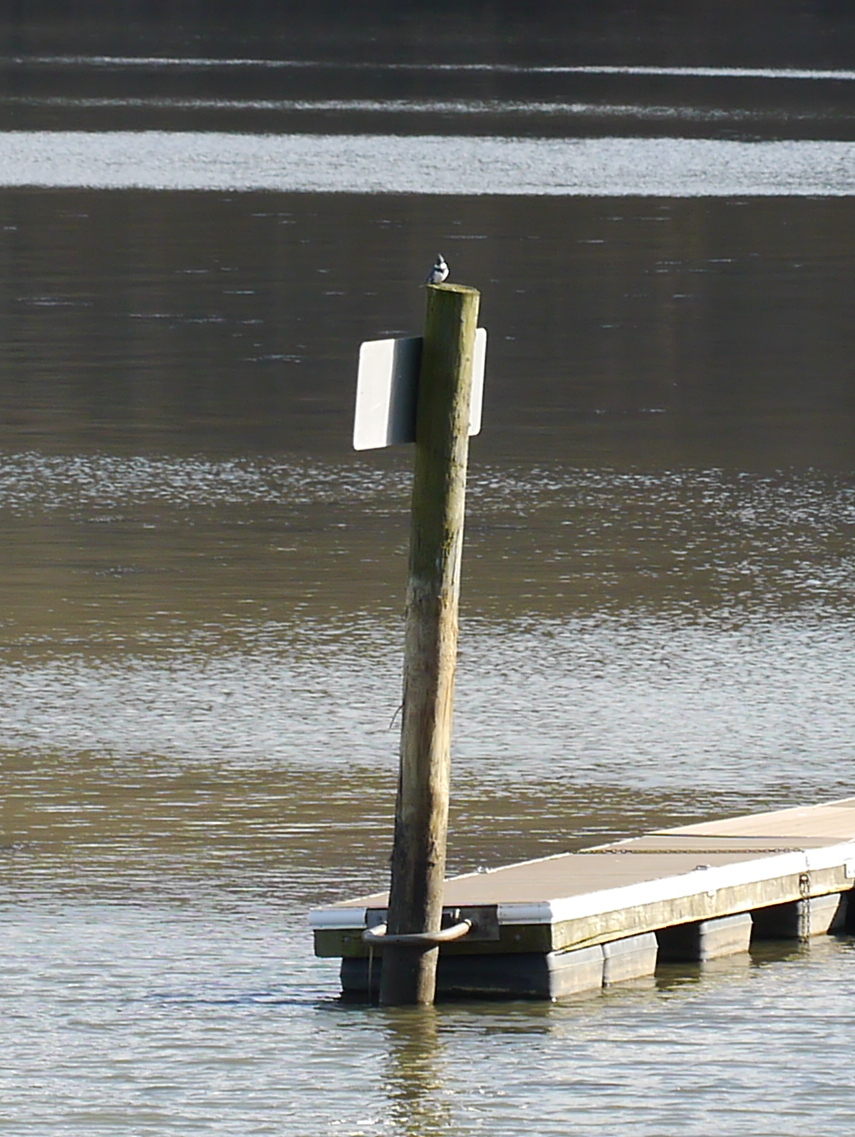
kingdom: Animalia
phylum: Chordata
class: Aves
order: Coraciiformes
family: Alcedinidae
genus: Megaceryle
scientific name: Megaceryle alcyon
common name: Belted kingfisher
